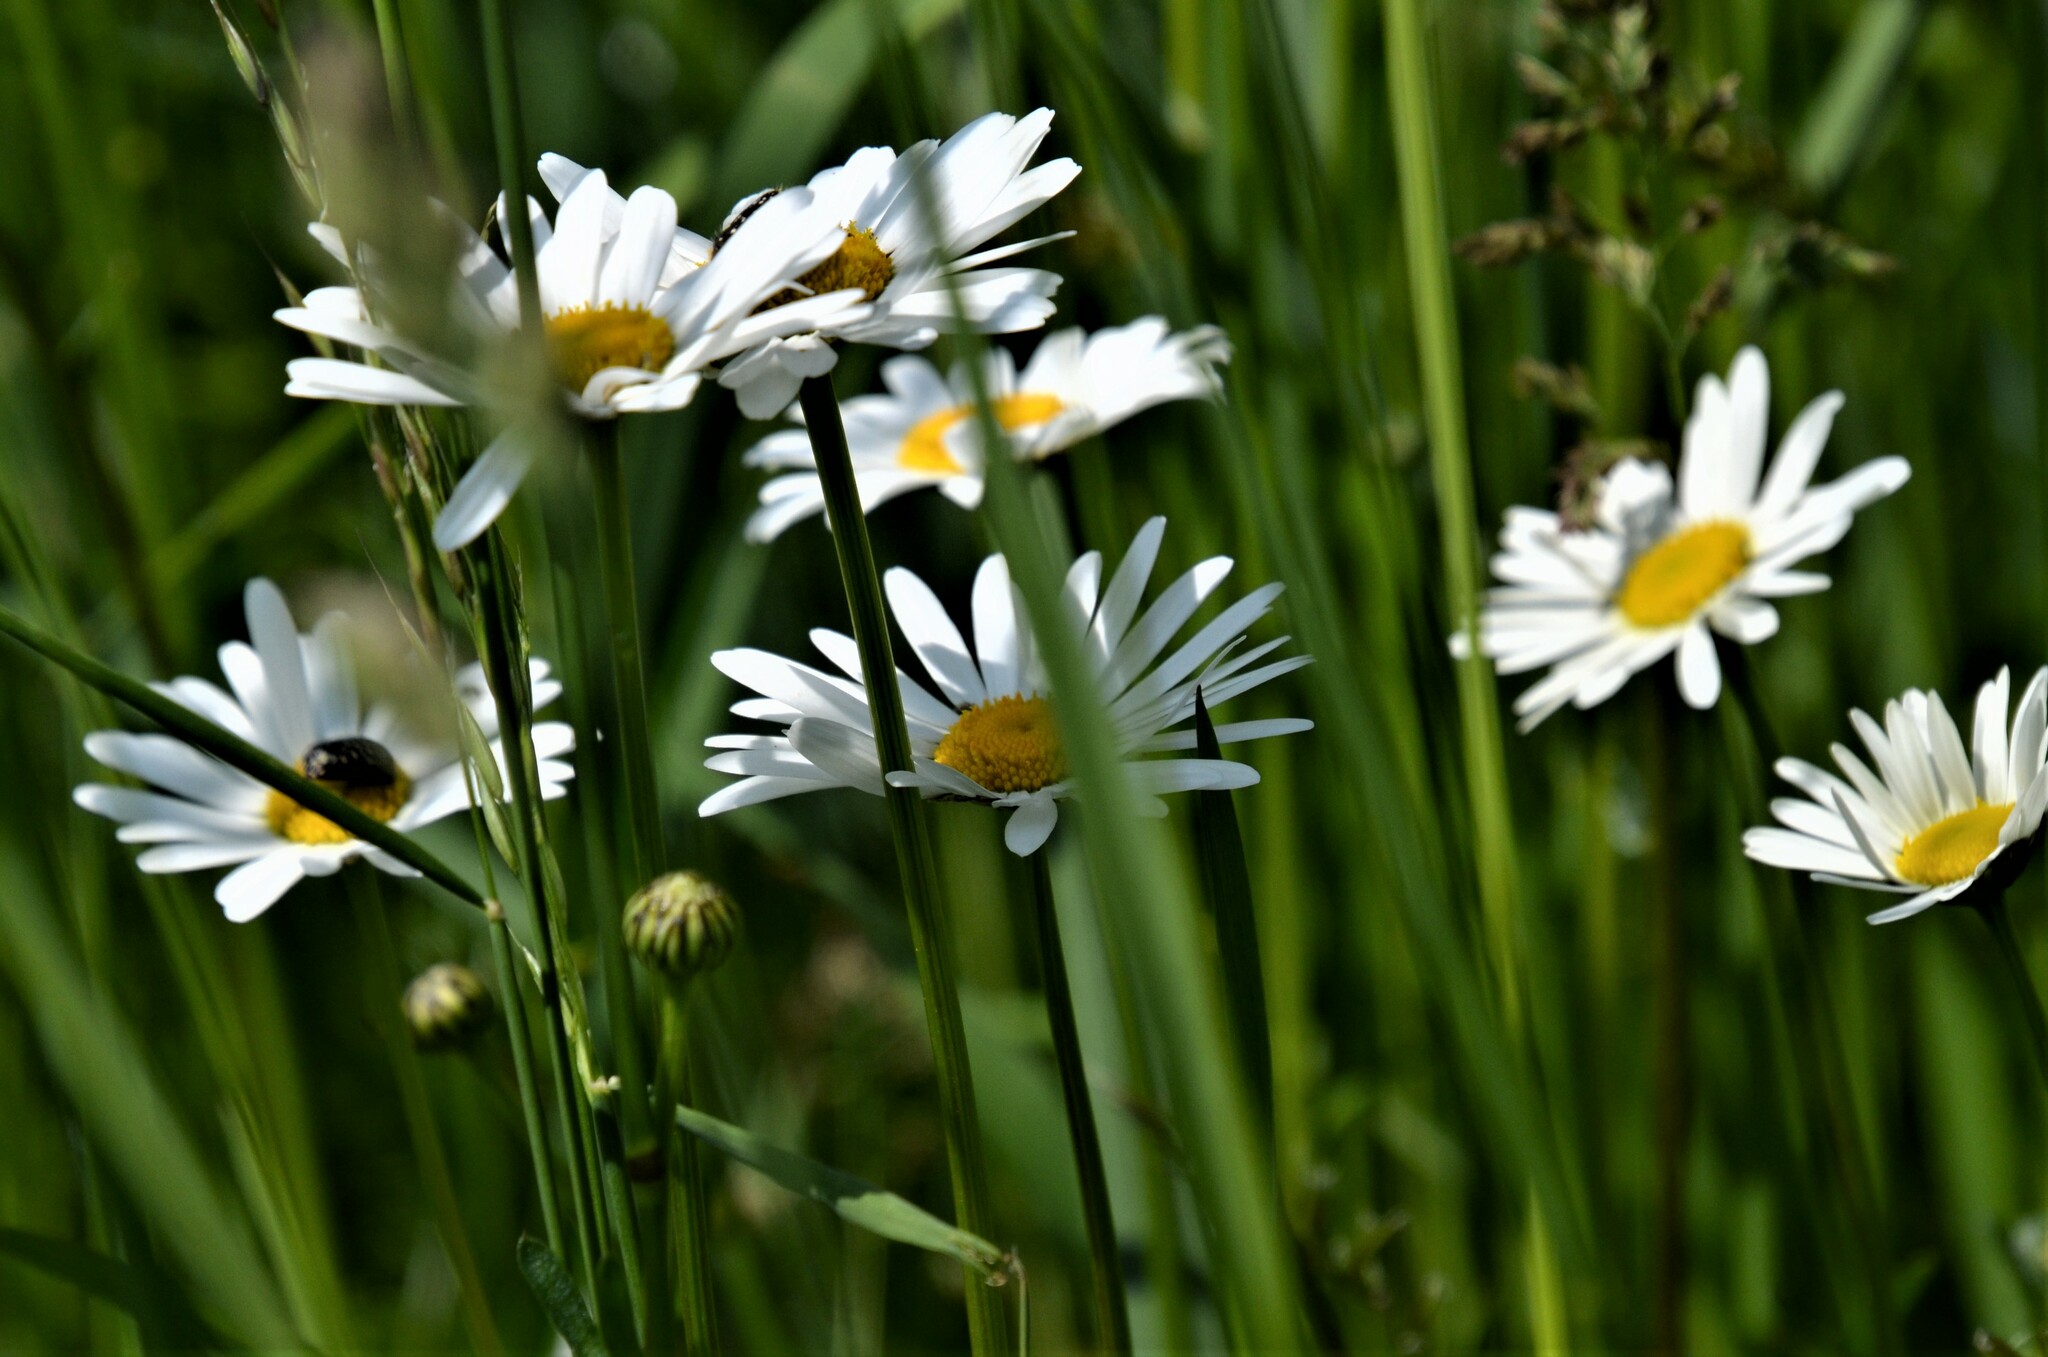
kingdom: Plantae
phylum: Tracheophyta
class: Magnoliopsida
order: Asterales
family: Asteraceae
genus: Leucanthemum
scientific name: Leucanthemum vulgare
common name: Oxeye daisy
